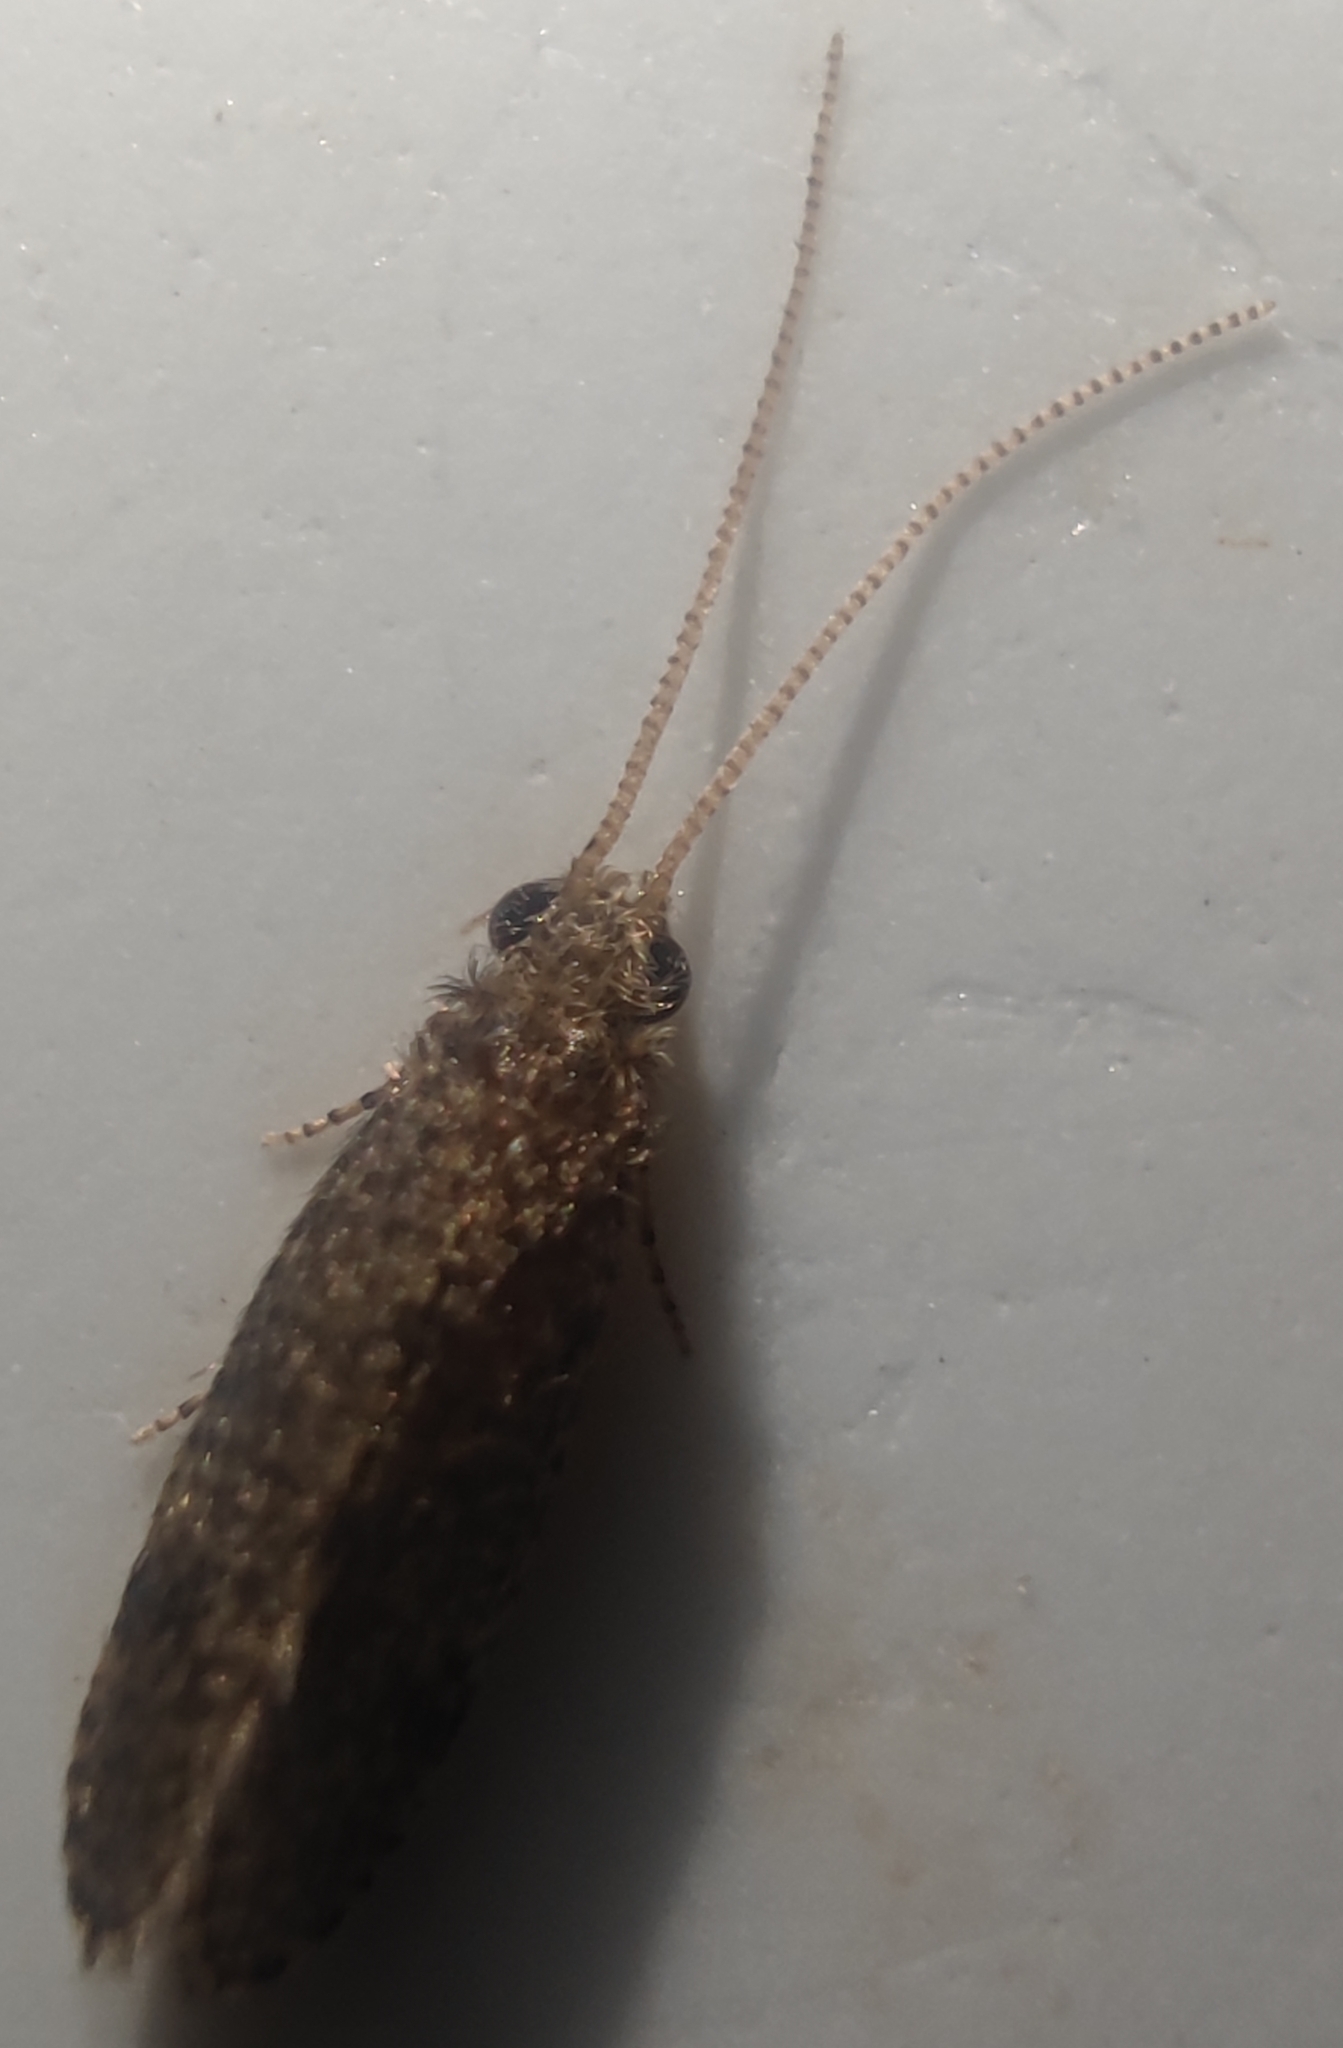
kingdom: Animalia
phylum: Arthropoda
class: Insecta
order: Trichoptera
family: Ecnomidae
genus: Ecnomus
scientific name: Ecnomus tenellus
